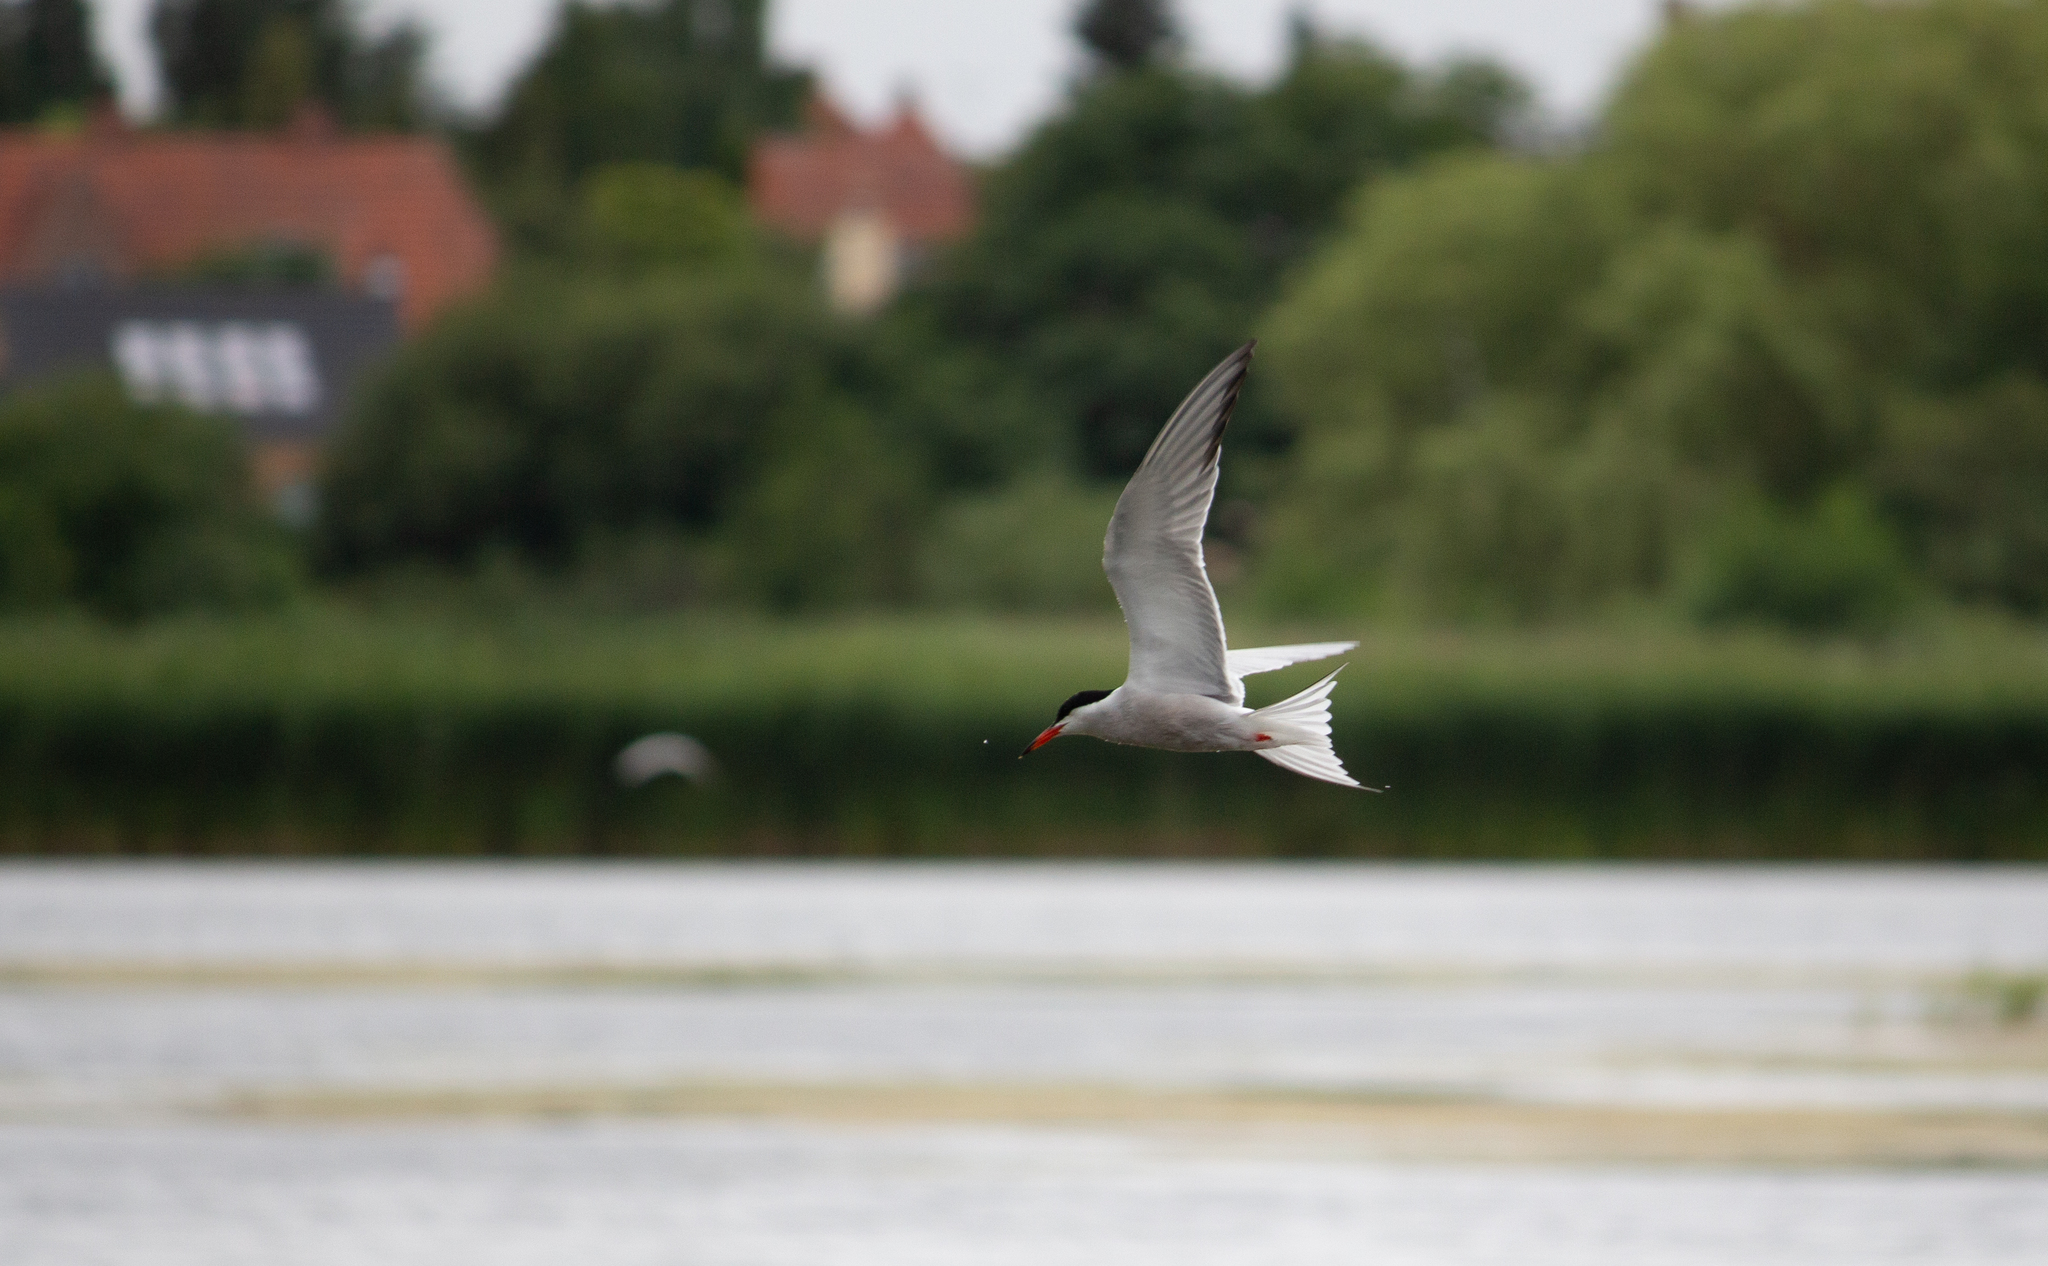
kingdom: Animalia
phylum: Chordata
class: Aves
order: Charadriiformes
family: Laridae
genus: Sterna
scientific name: Sterna hirundo
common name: Common tern
